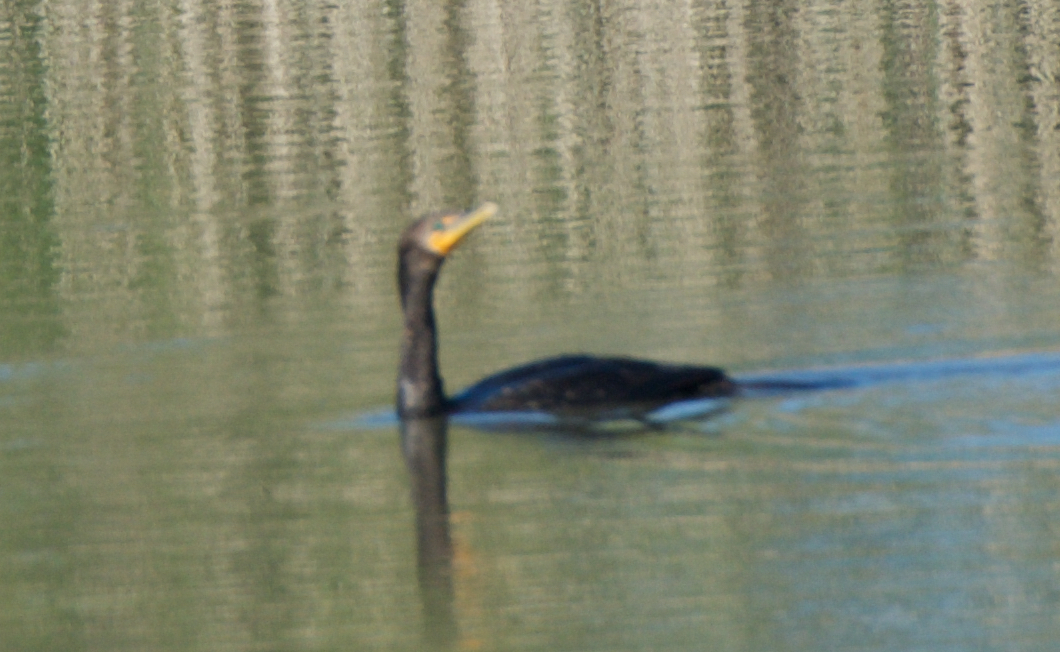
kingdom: Animalia
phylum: Chordata
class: Aves
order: Suliformes
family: Phalacrocoracidae
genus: Phalacrocorax
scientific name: Phalacrocorax auritus
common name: Double-crested cormorant
